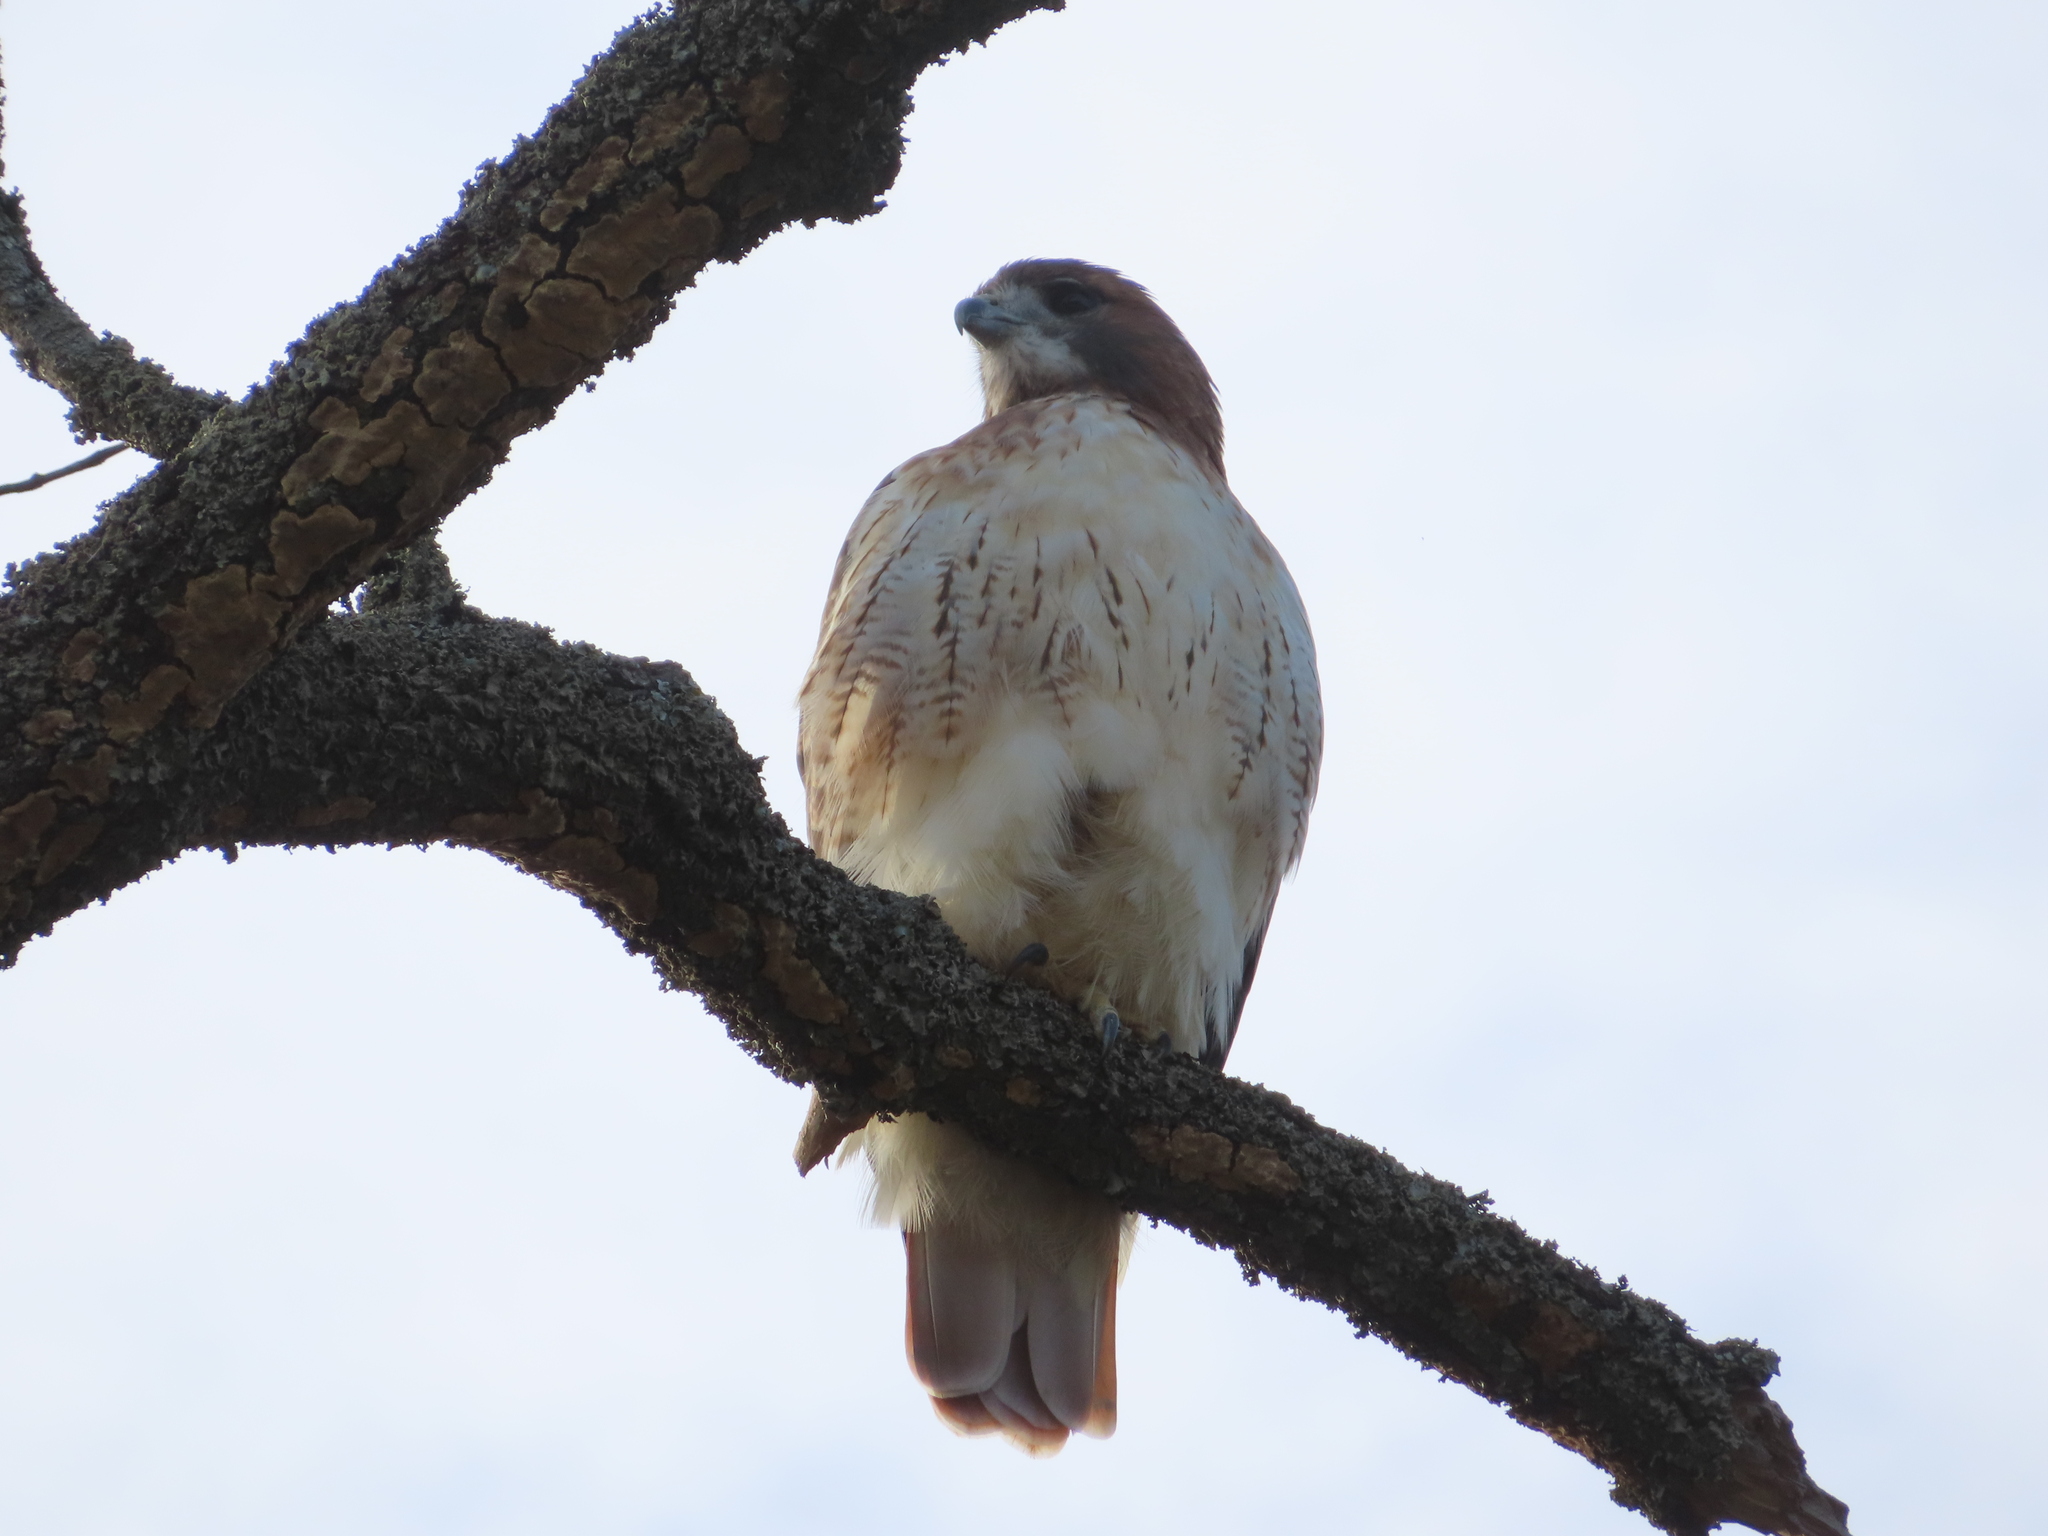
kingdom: Animalia
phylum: Chordata
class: Aves
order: Accipitriformes
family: Accipitridae
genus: Buteo
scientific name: Buteo jamaicensis
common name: Red-tailed hawk
